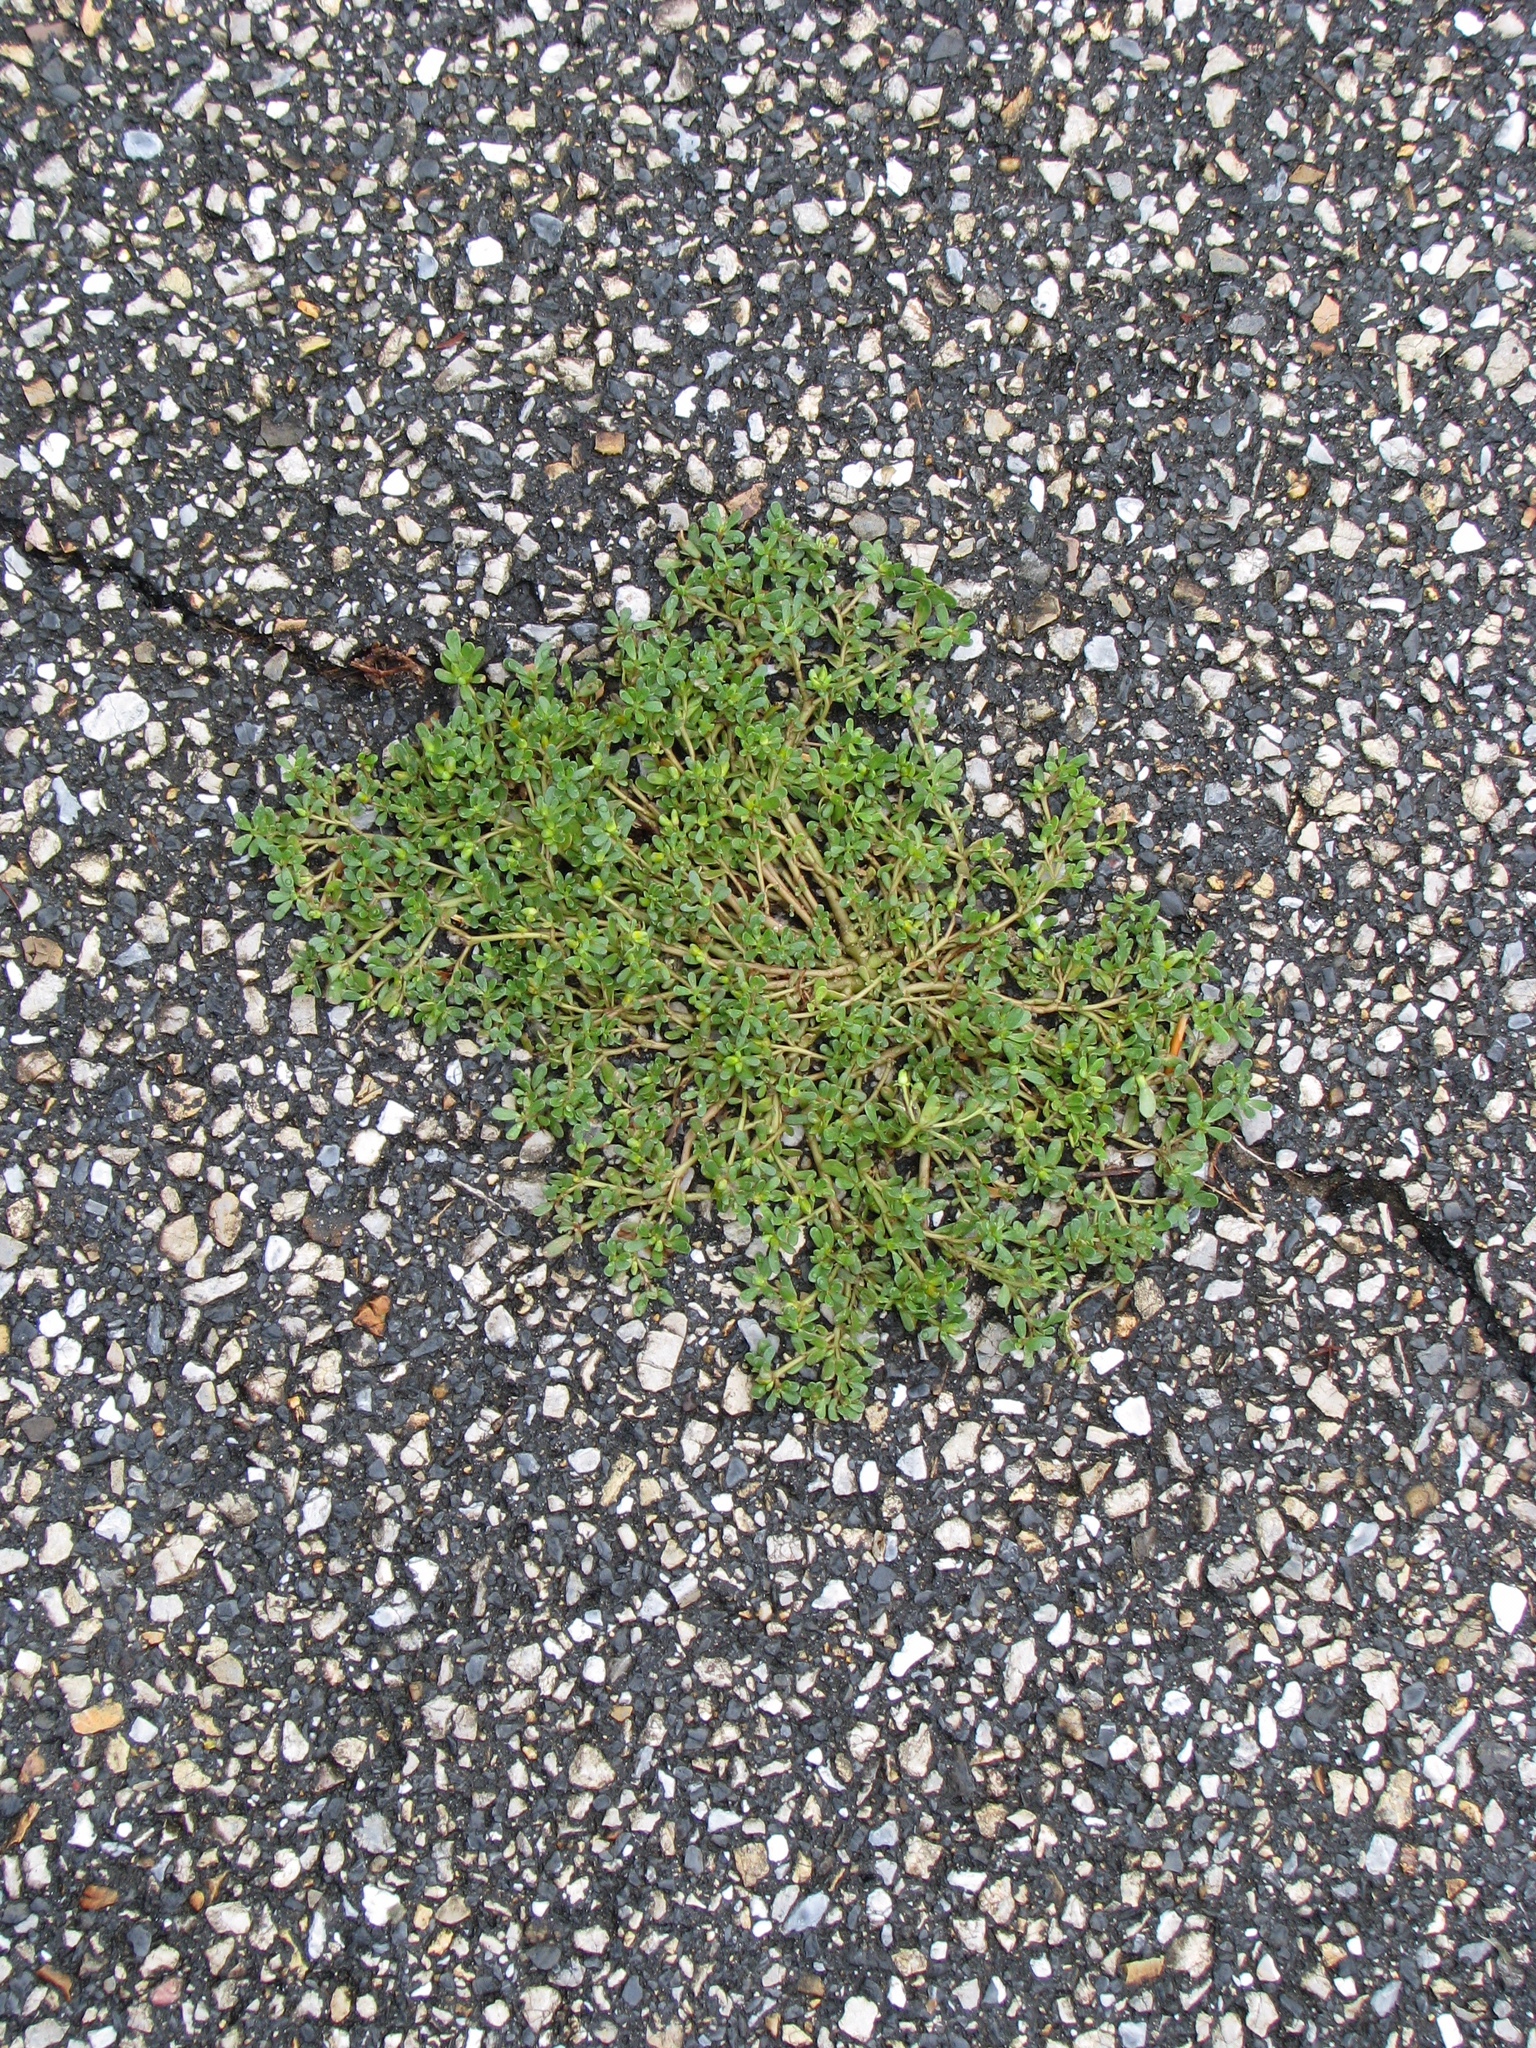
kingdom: Plantae
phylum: Tracheophyta
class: Magnoliopsida
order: Caryophyllales
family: Portulacaceae
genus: Portulaca
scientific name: Portulaca oleracea
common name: Common purslane
